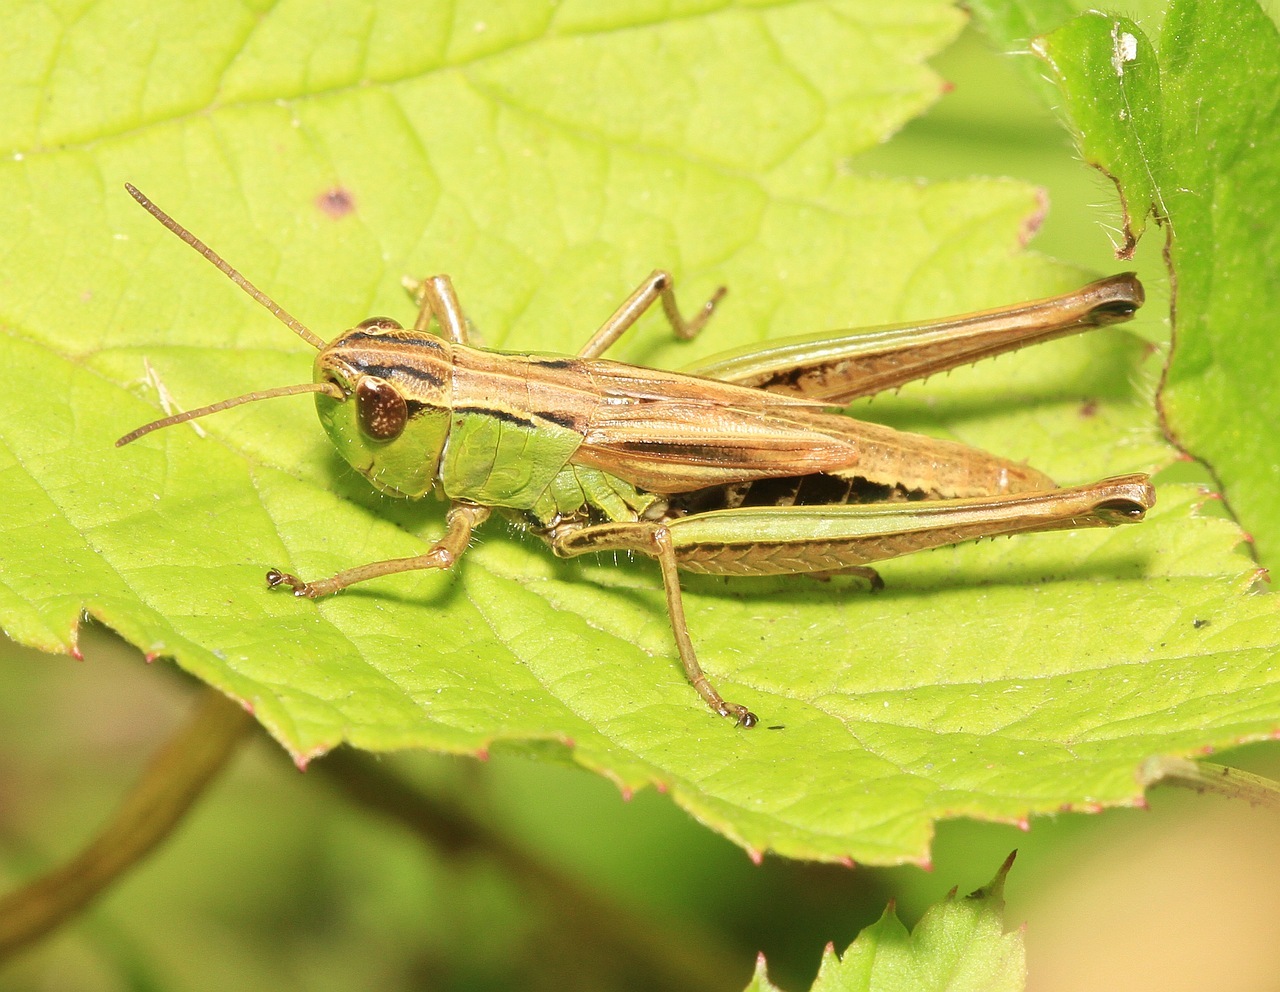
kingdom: Animalia
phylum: Arthropoda
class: Insecta
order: Orthoptera
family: Acrididae
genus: Pseudochorthippus
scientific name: Pseudochorthippus parallelus
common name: Meadow grasshopper
